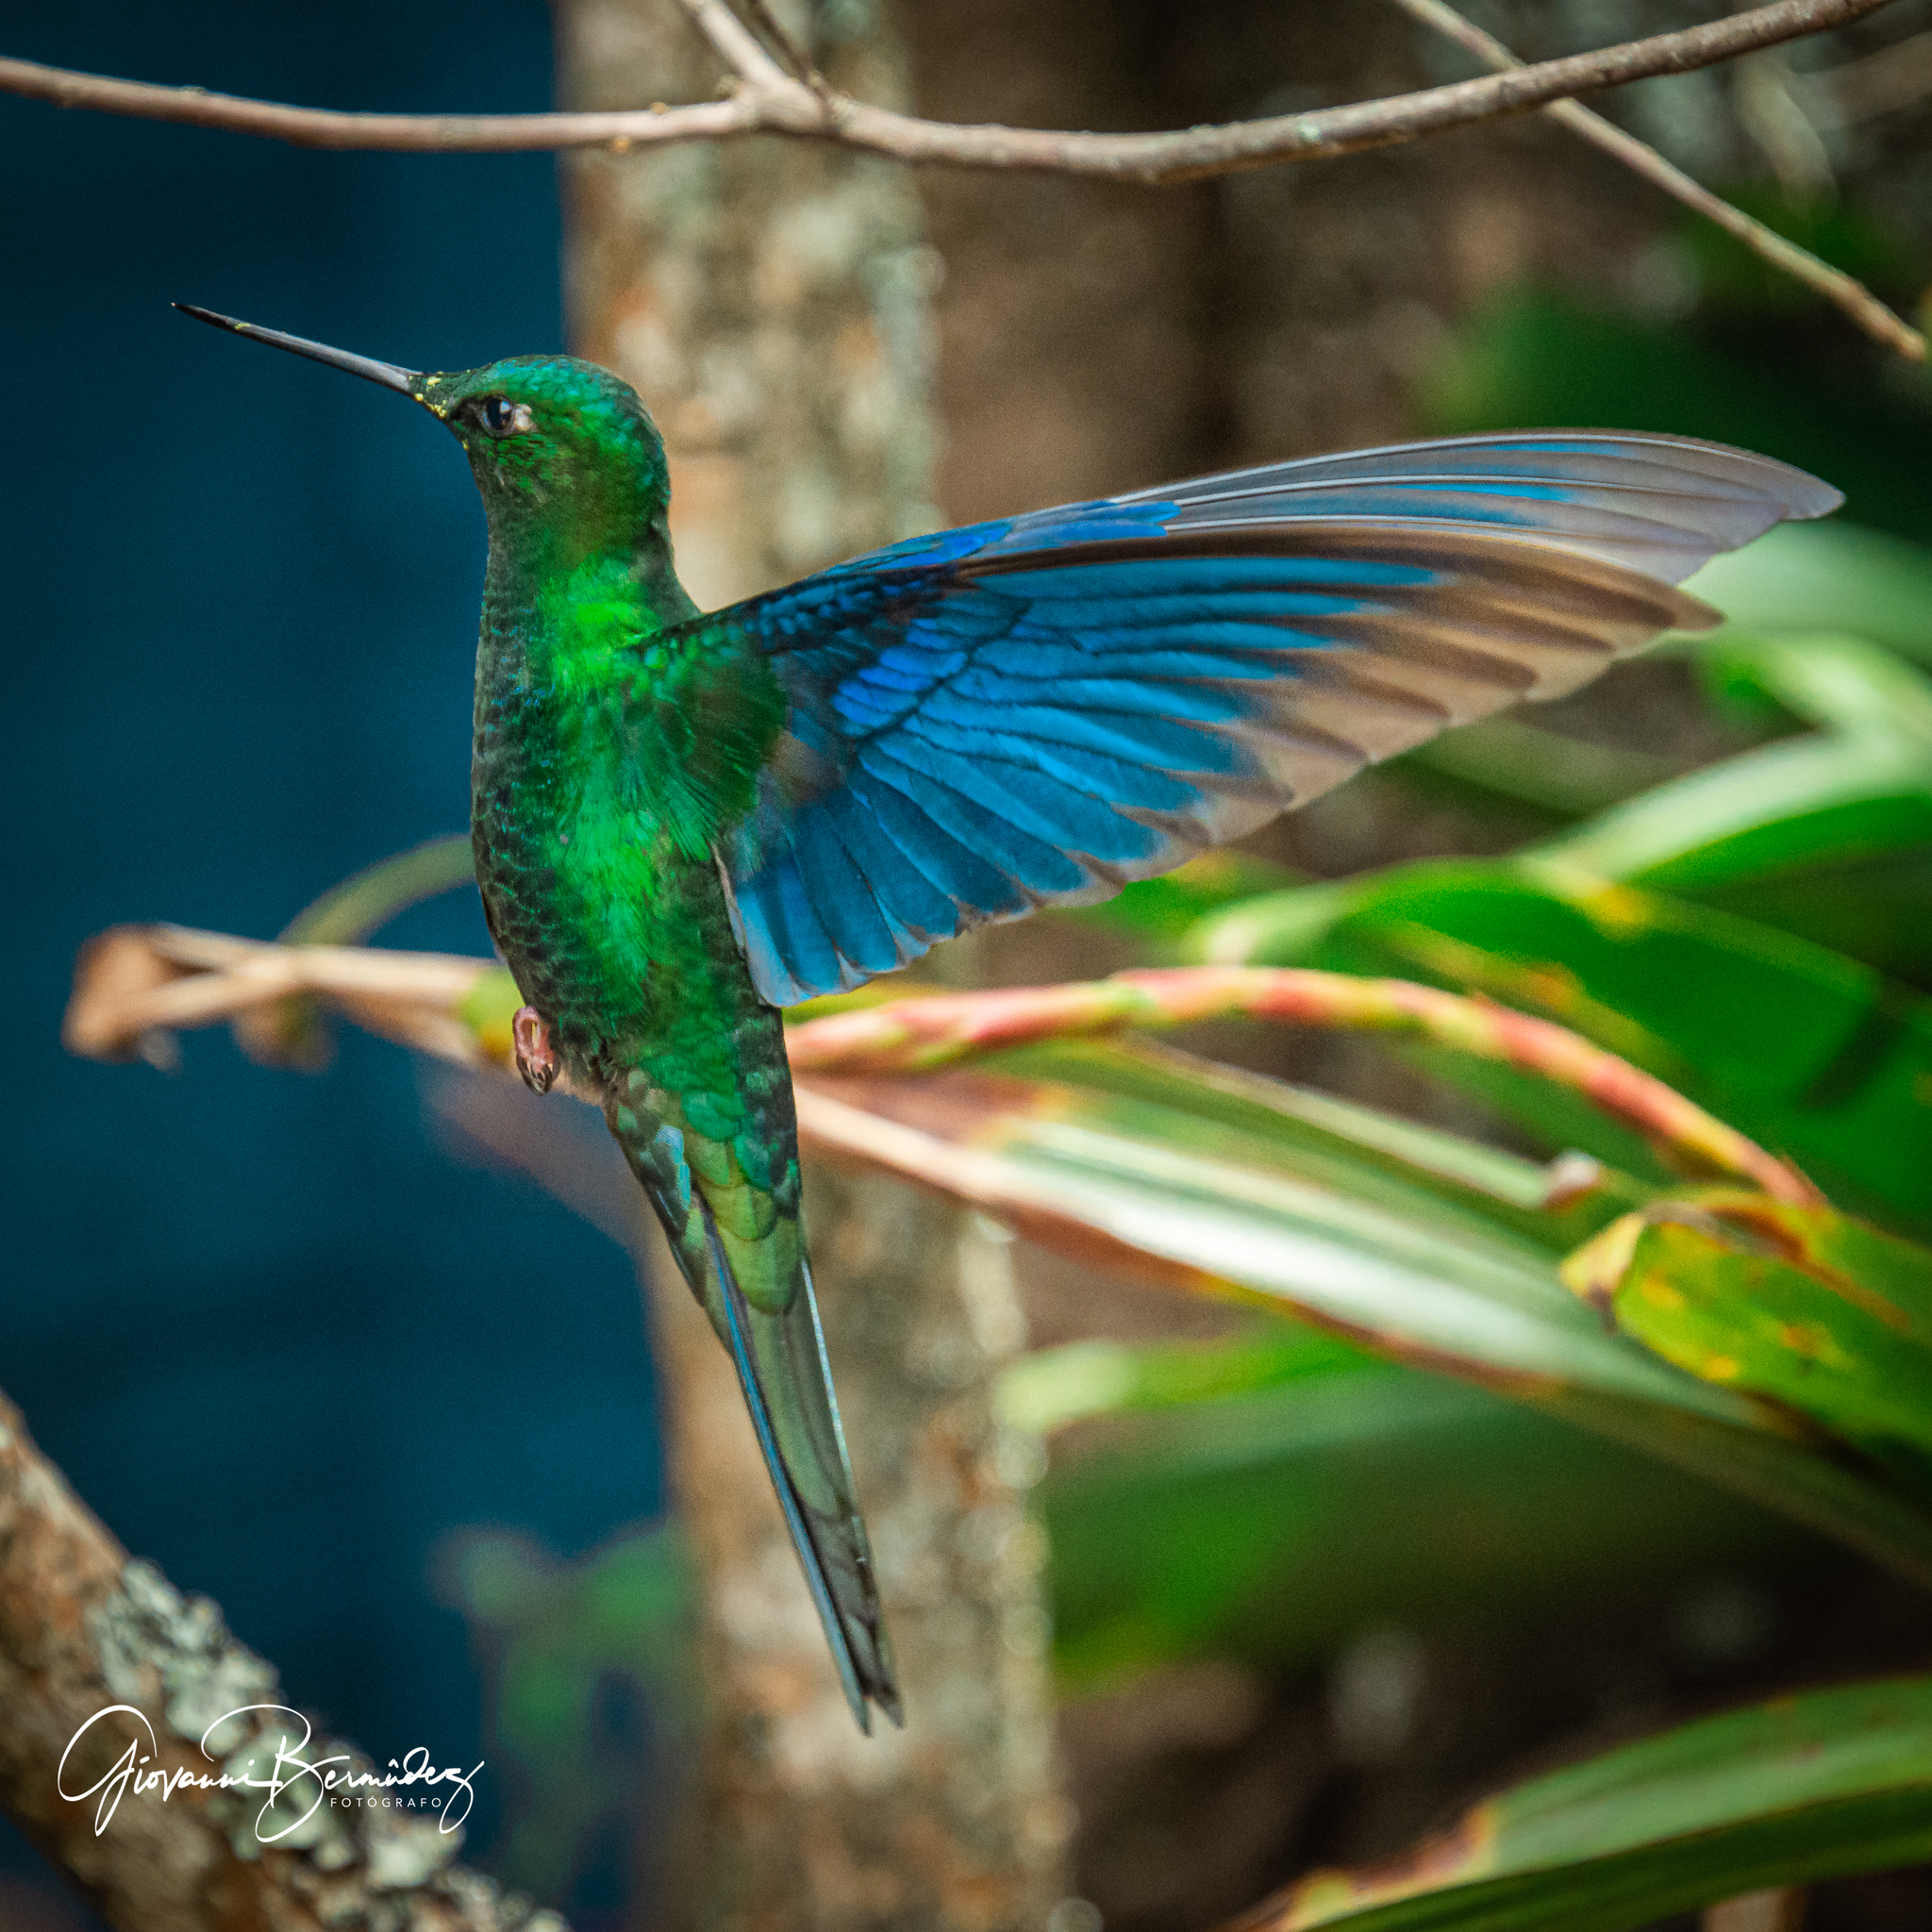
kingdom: Animalia
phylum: Chordata
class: Aves
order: Apodiformes
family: Trochilidae
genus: Pterophanes
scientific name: Pterophanes cyanopterus
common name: Great sapphirewing
